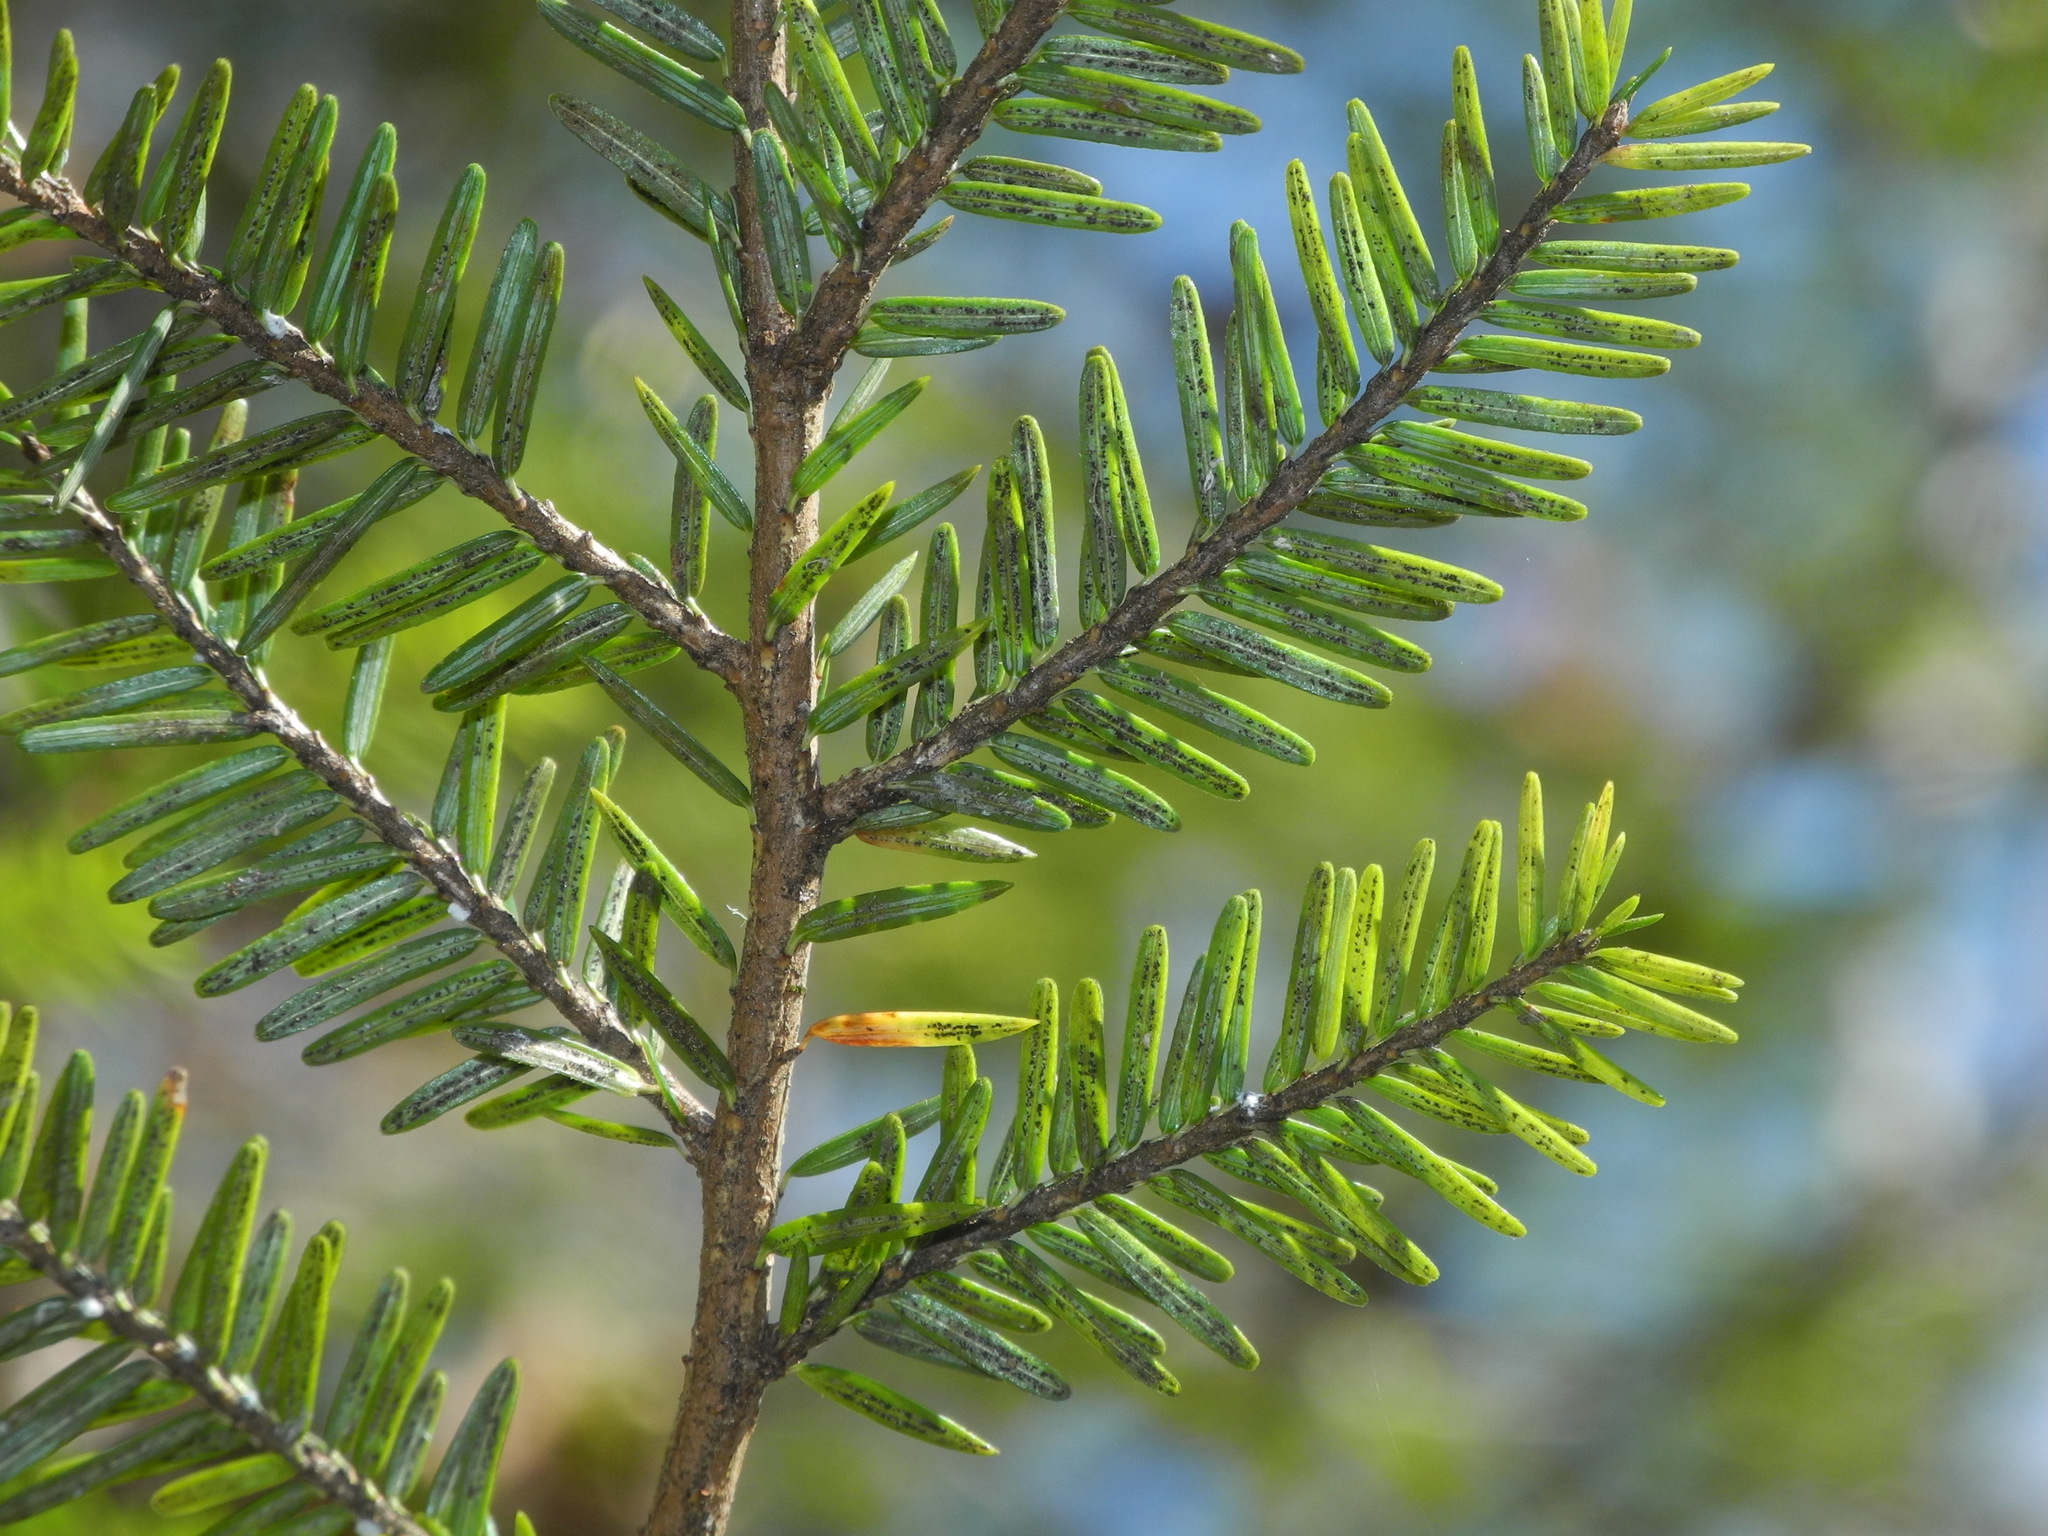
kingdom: Plantae
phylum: Tracheophyta
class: Pinopsida
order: Pinales
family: Pinaceae
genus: Tsuga
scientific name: Tsuga canadensis
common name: Eastern hemlock
